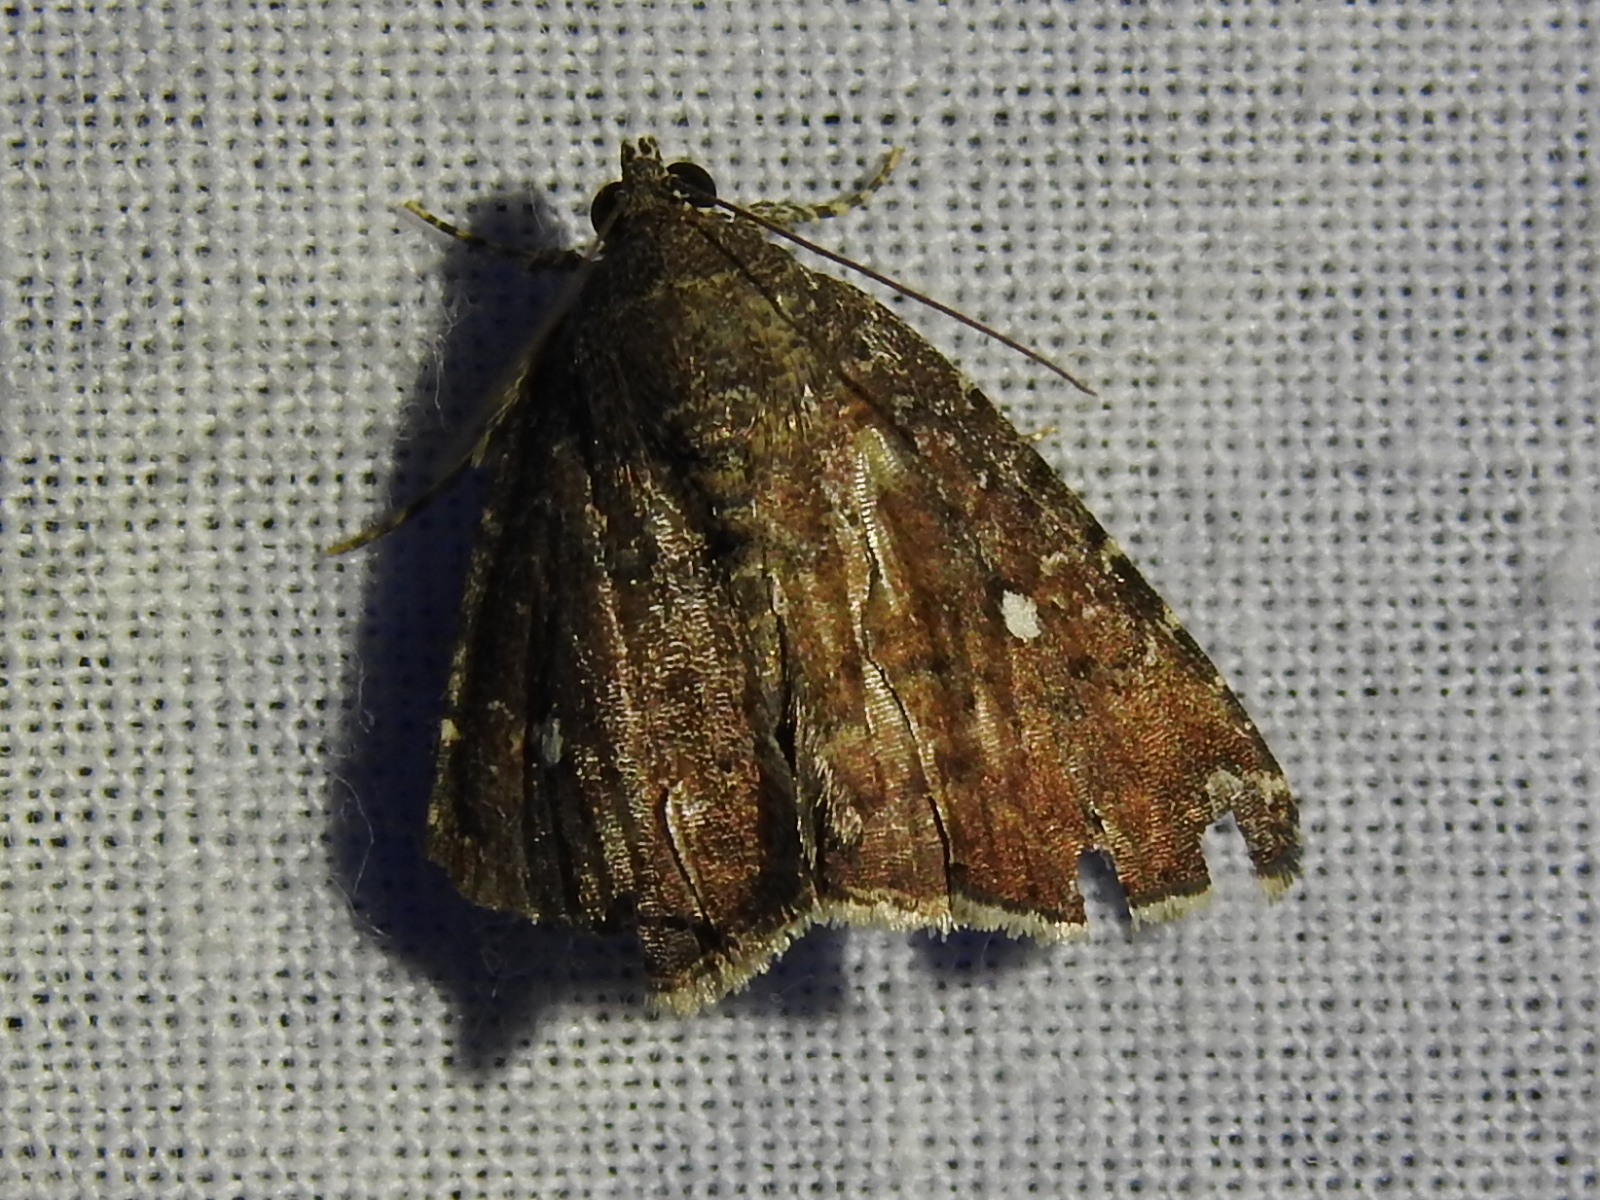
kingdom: Animalia
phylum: Arthropoda
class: Insecta
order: Lepidoptera
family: Noctuidae
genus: Amyna
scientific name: Amyna stricta
